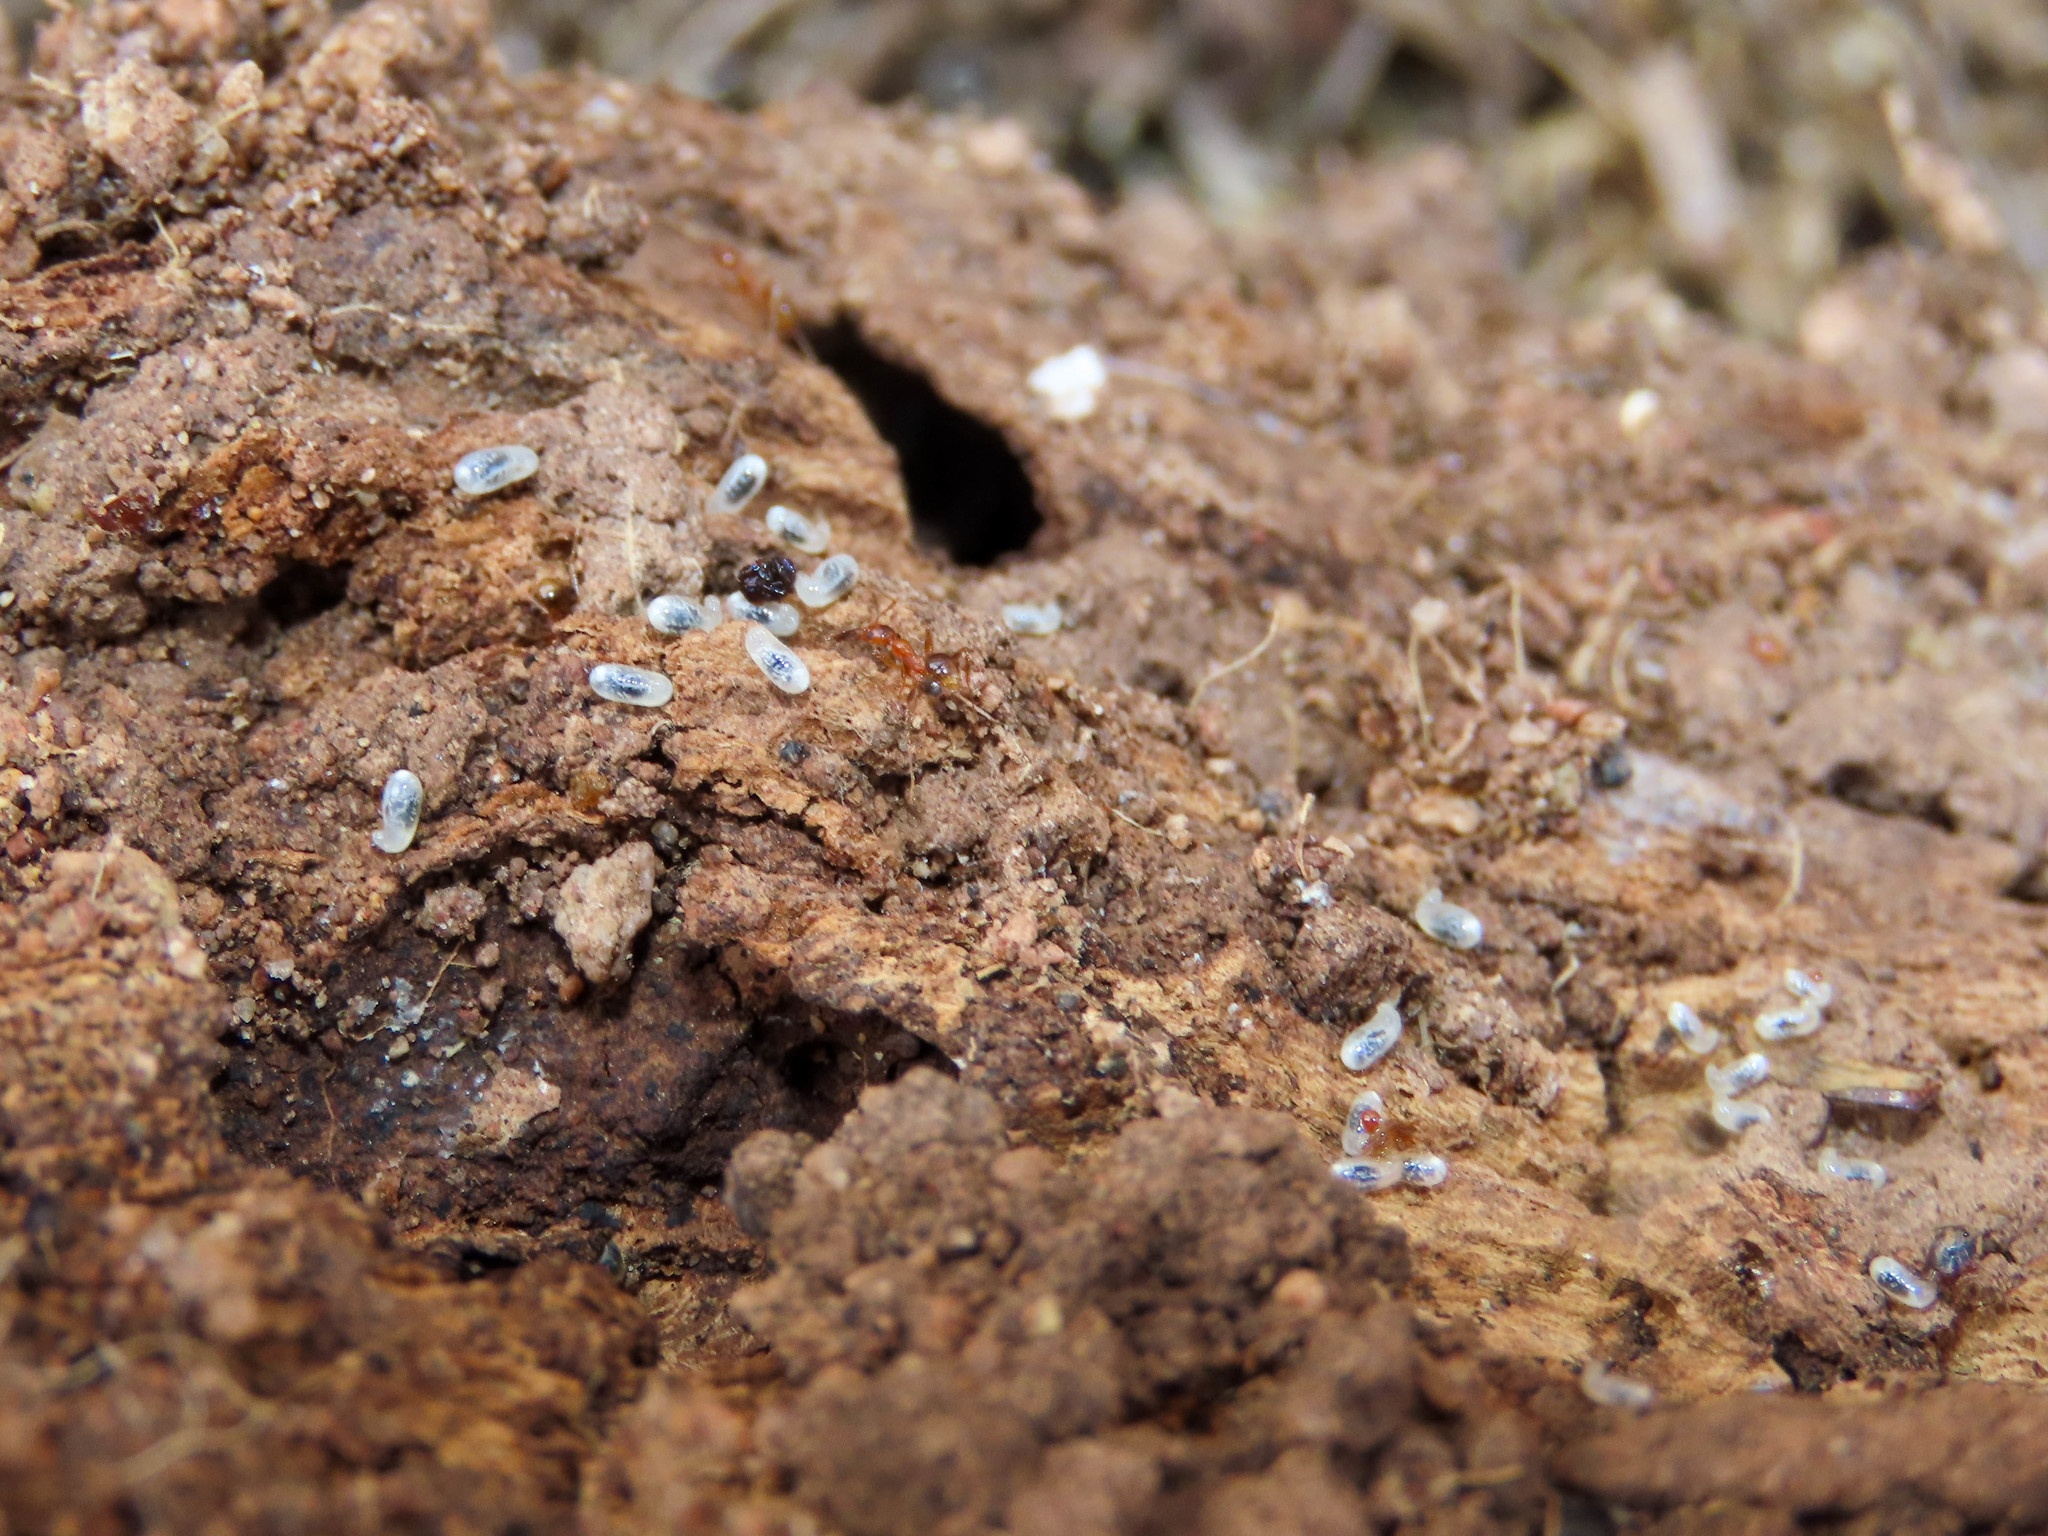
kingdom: Animalia
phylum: Arthropoda
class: Insecta
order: Hymenoptera
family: Formicidae
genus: Pheidole
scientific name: Pheidole hyatti
